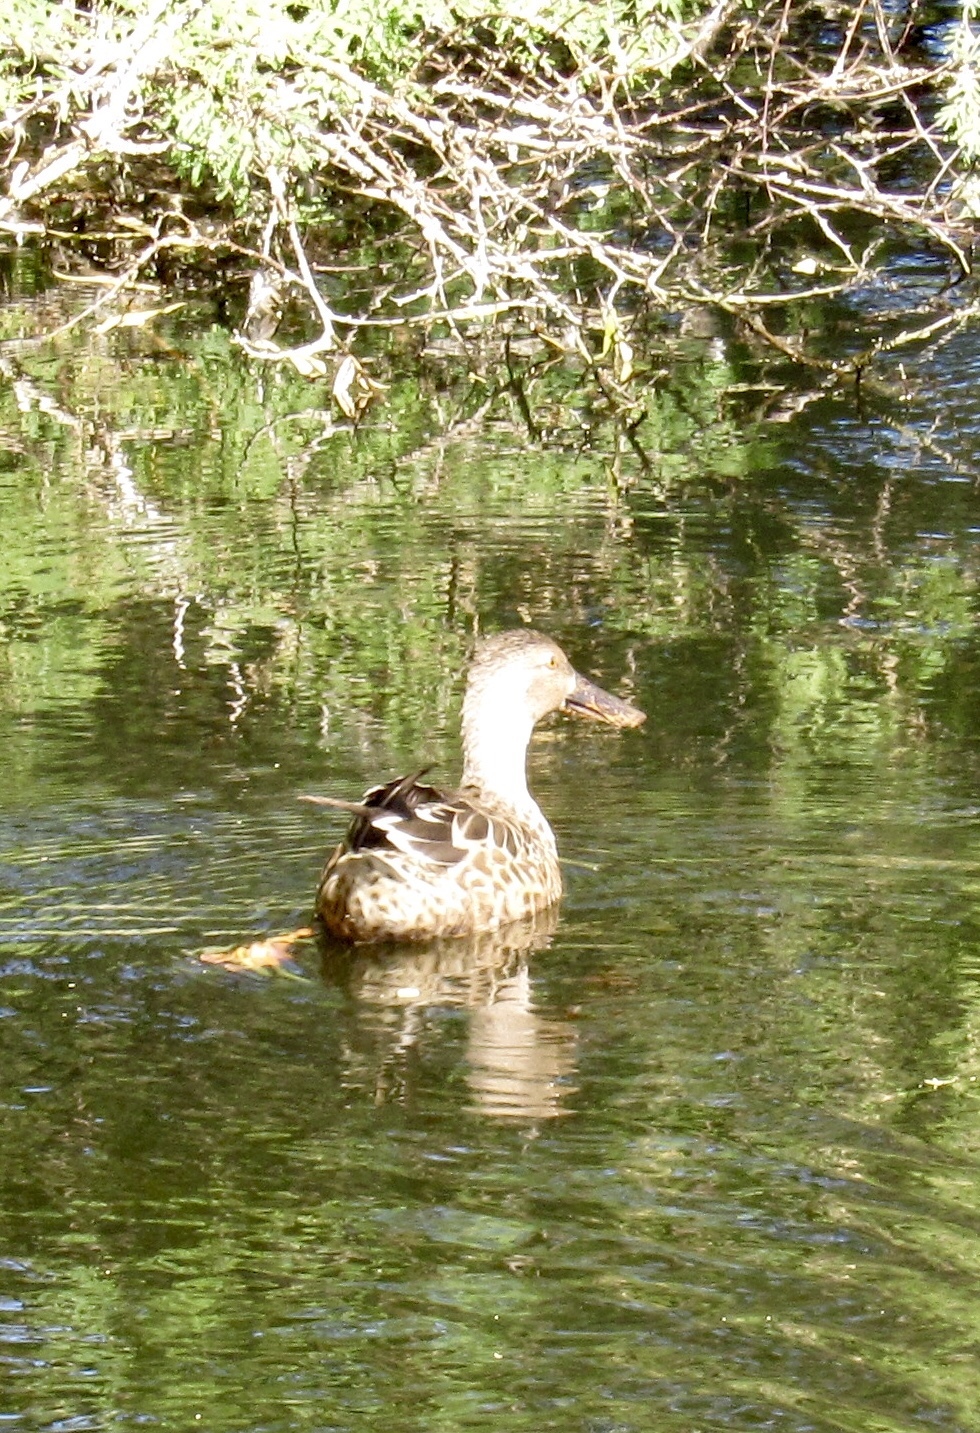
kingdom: Animalia
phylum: Chordata
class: Aves
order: Anseriformes
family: Anatidae
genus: Spatula
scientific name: Spatula clypeata
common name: Northern shoveler
